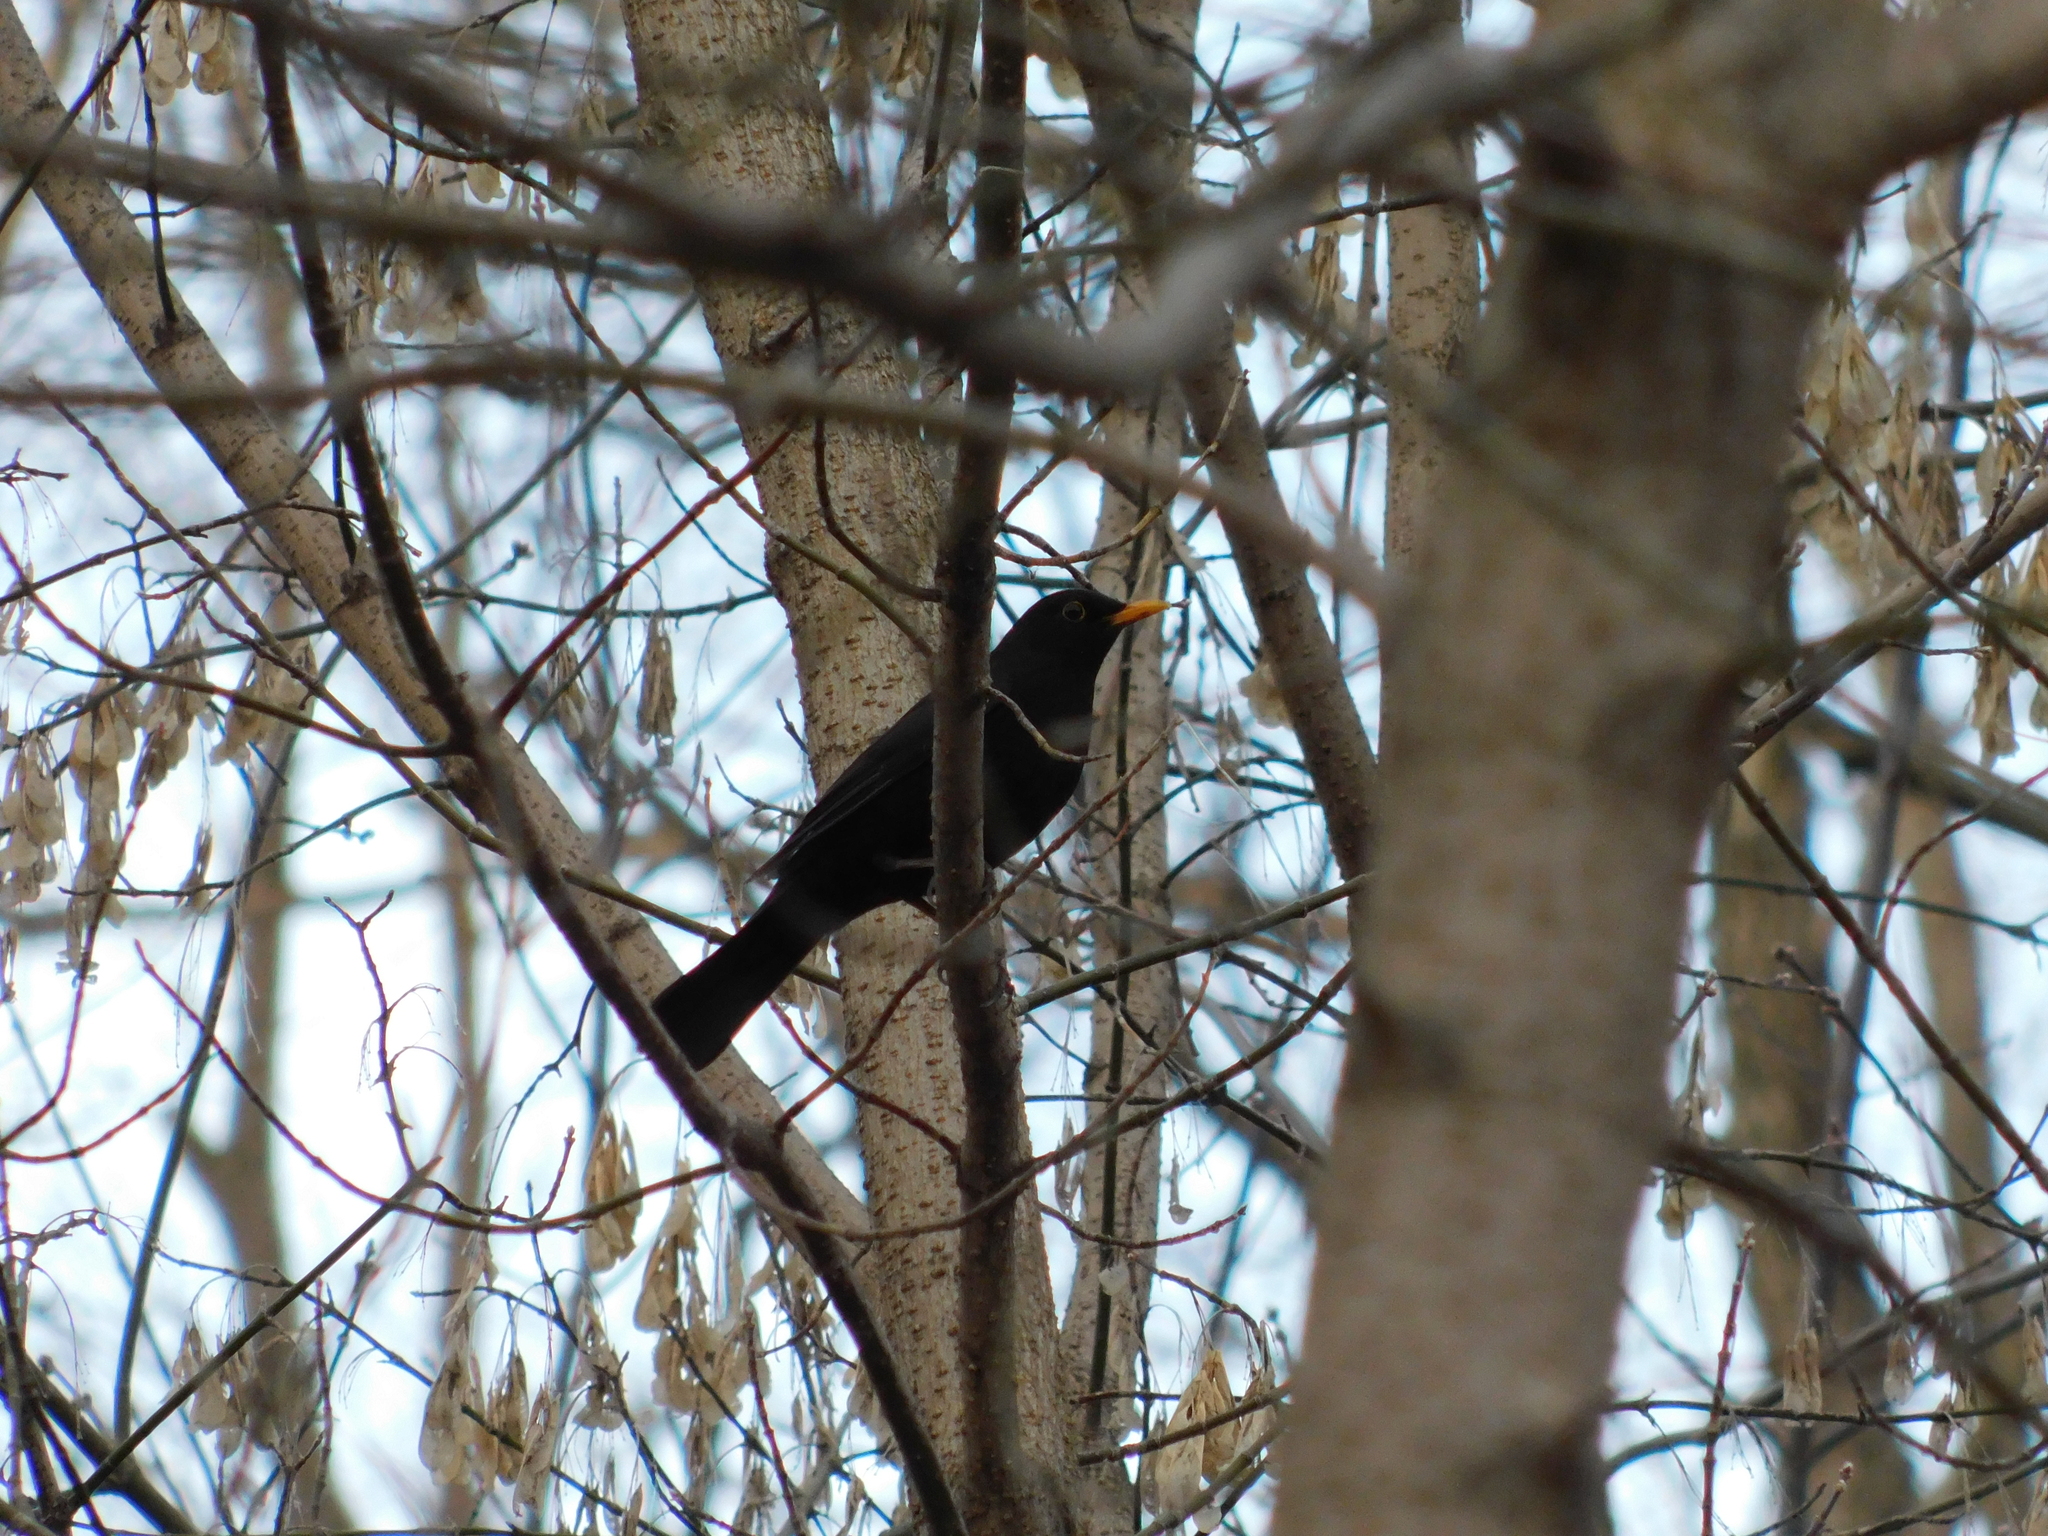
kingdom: Animalia
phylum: Chordata
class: Aves
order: Passeriformes
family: Turdidae
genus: Turdus
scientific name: Turdus merula
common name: Common blackbird
